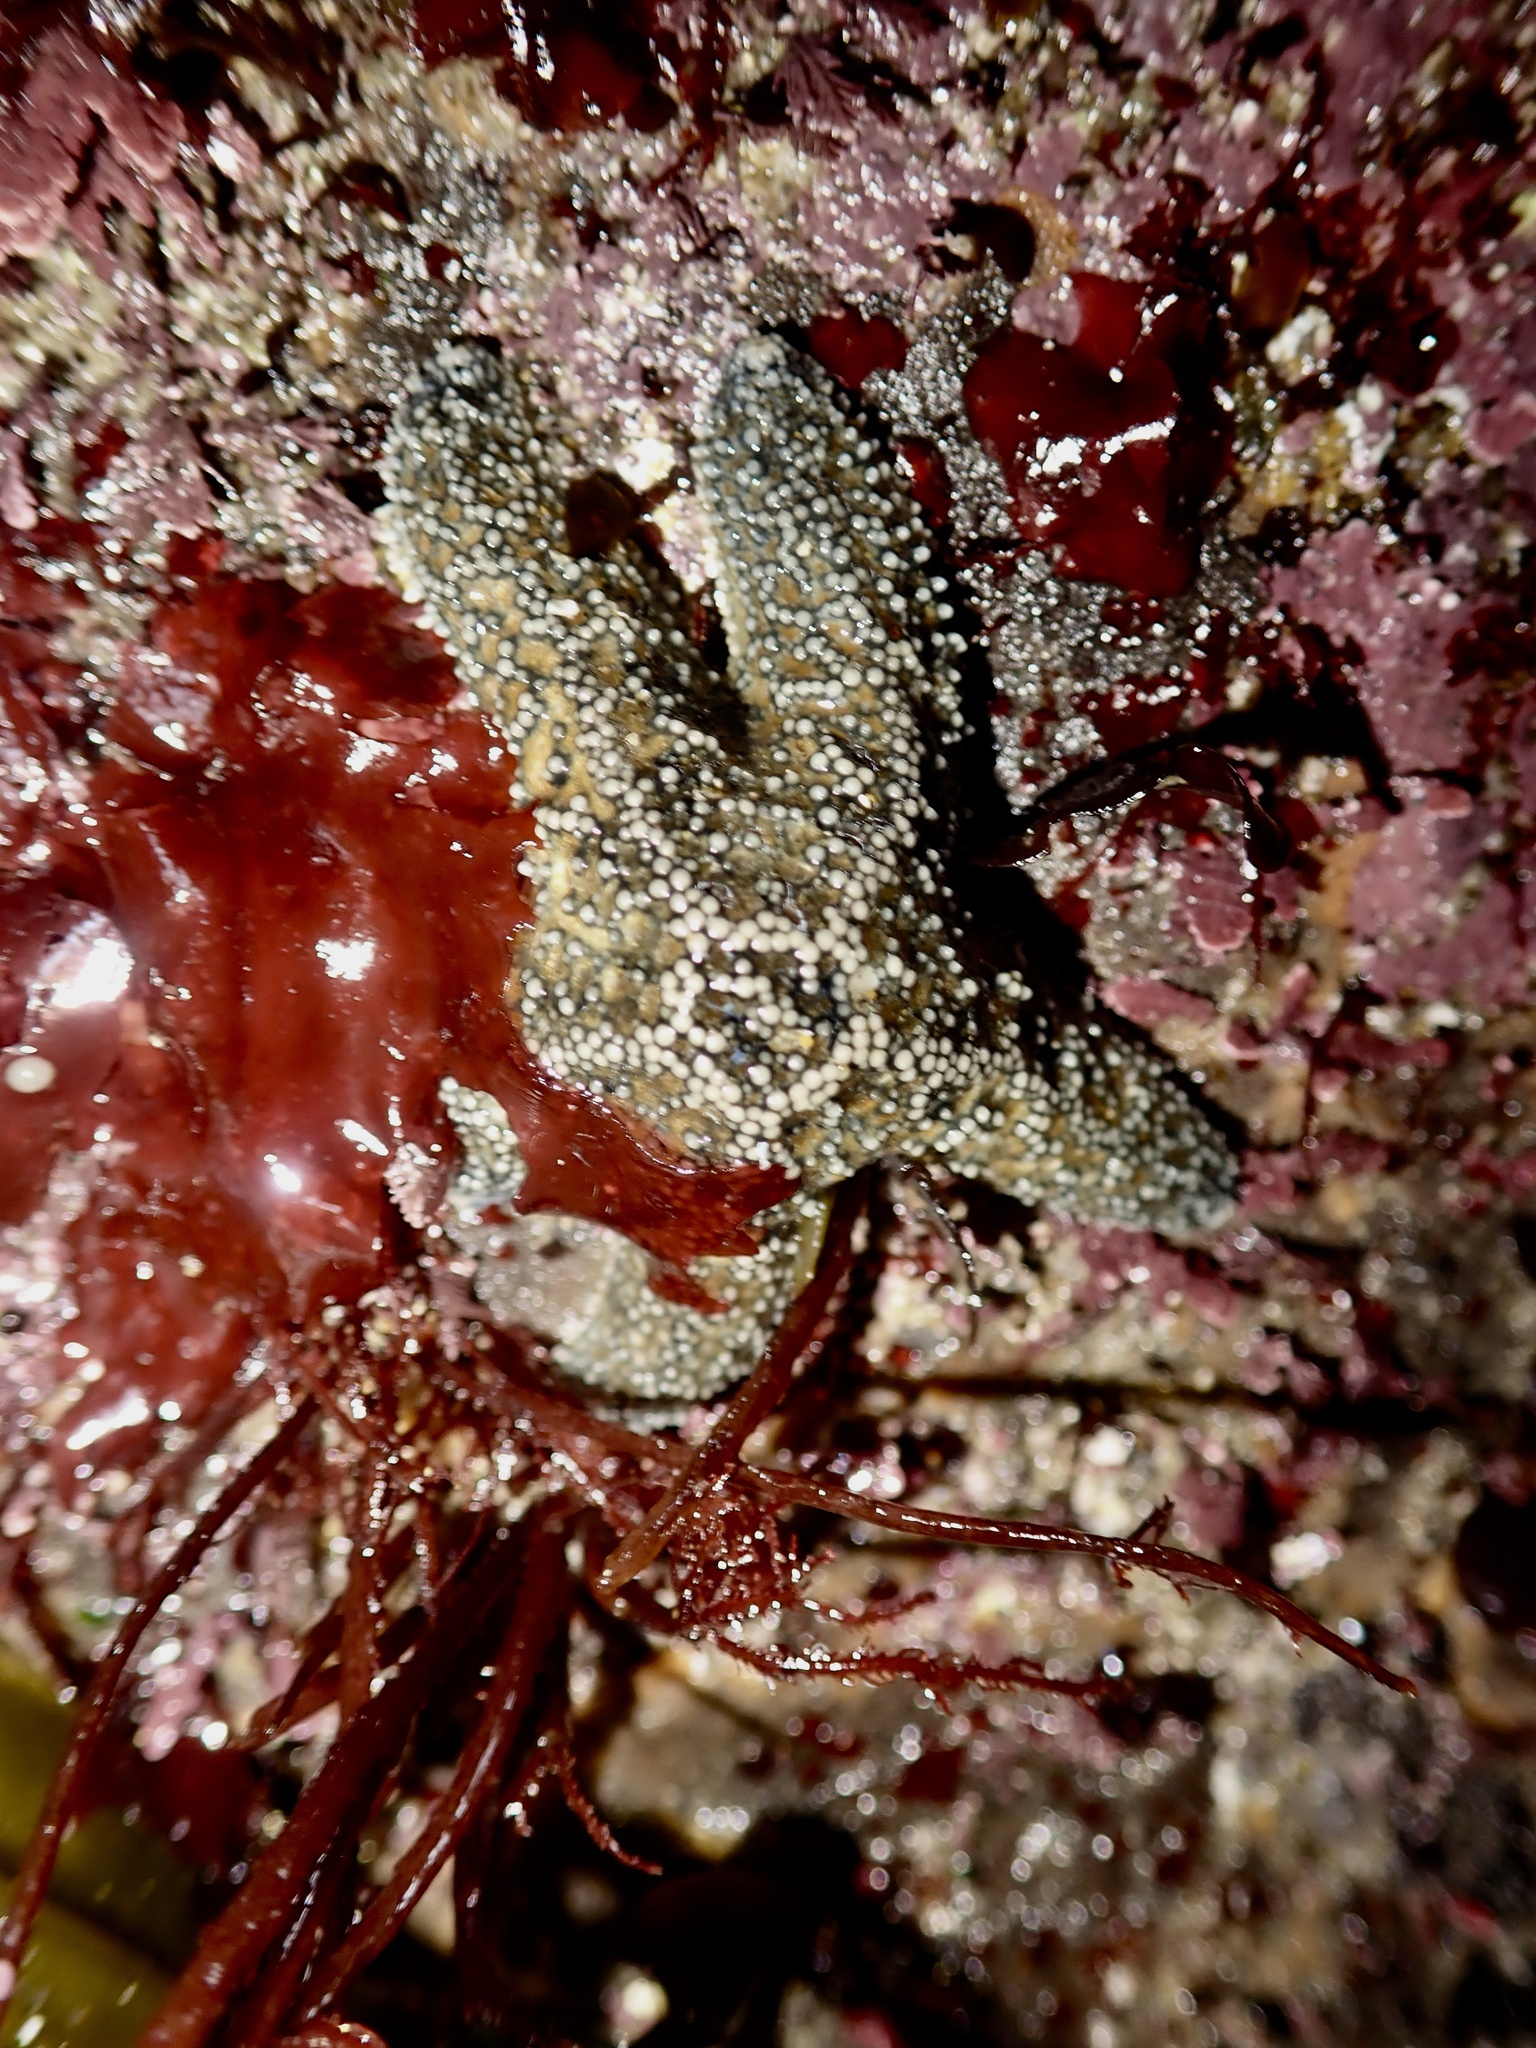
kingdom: Animalia
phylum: Echinodermata
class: Asteroidea
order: Forcipulatida
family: Asteriidae
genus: Pisaster
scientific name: Pisaster ochraceus
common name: Ochre stars
